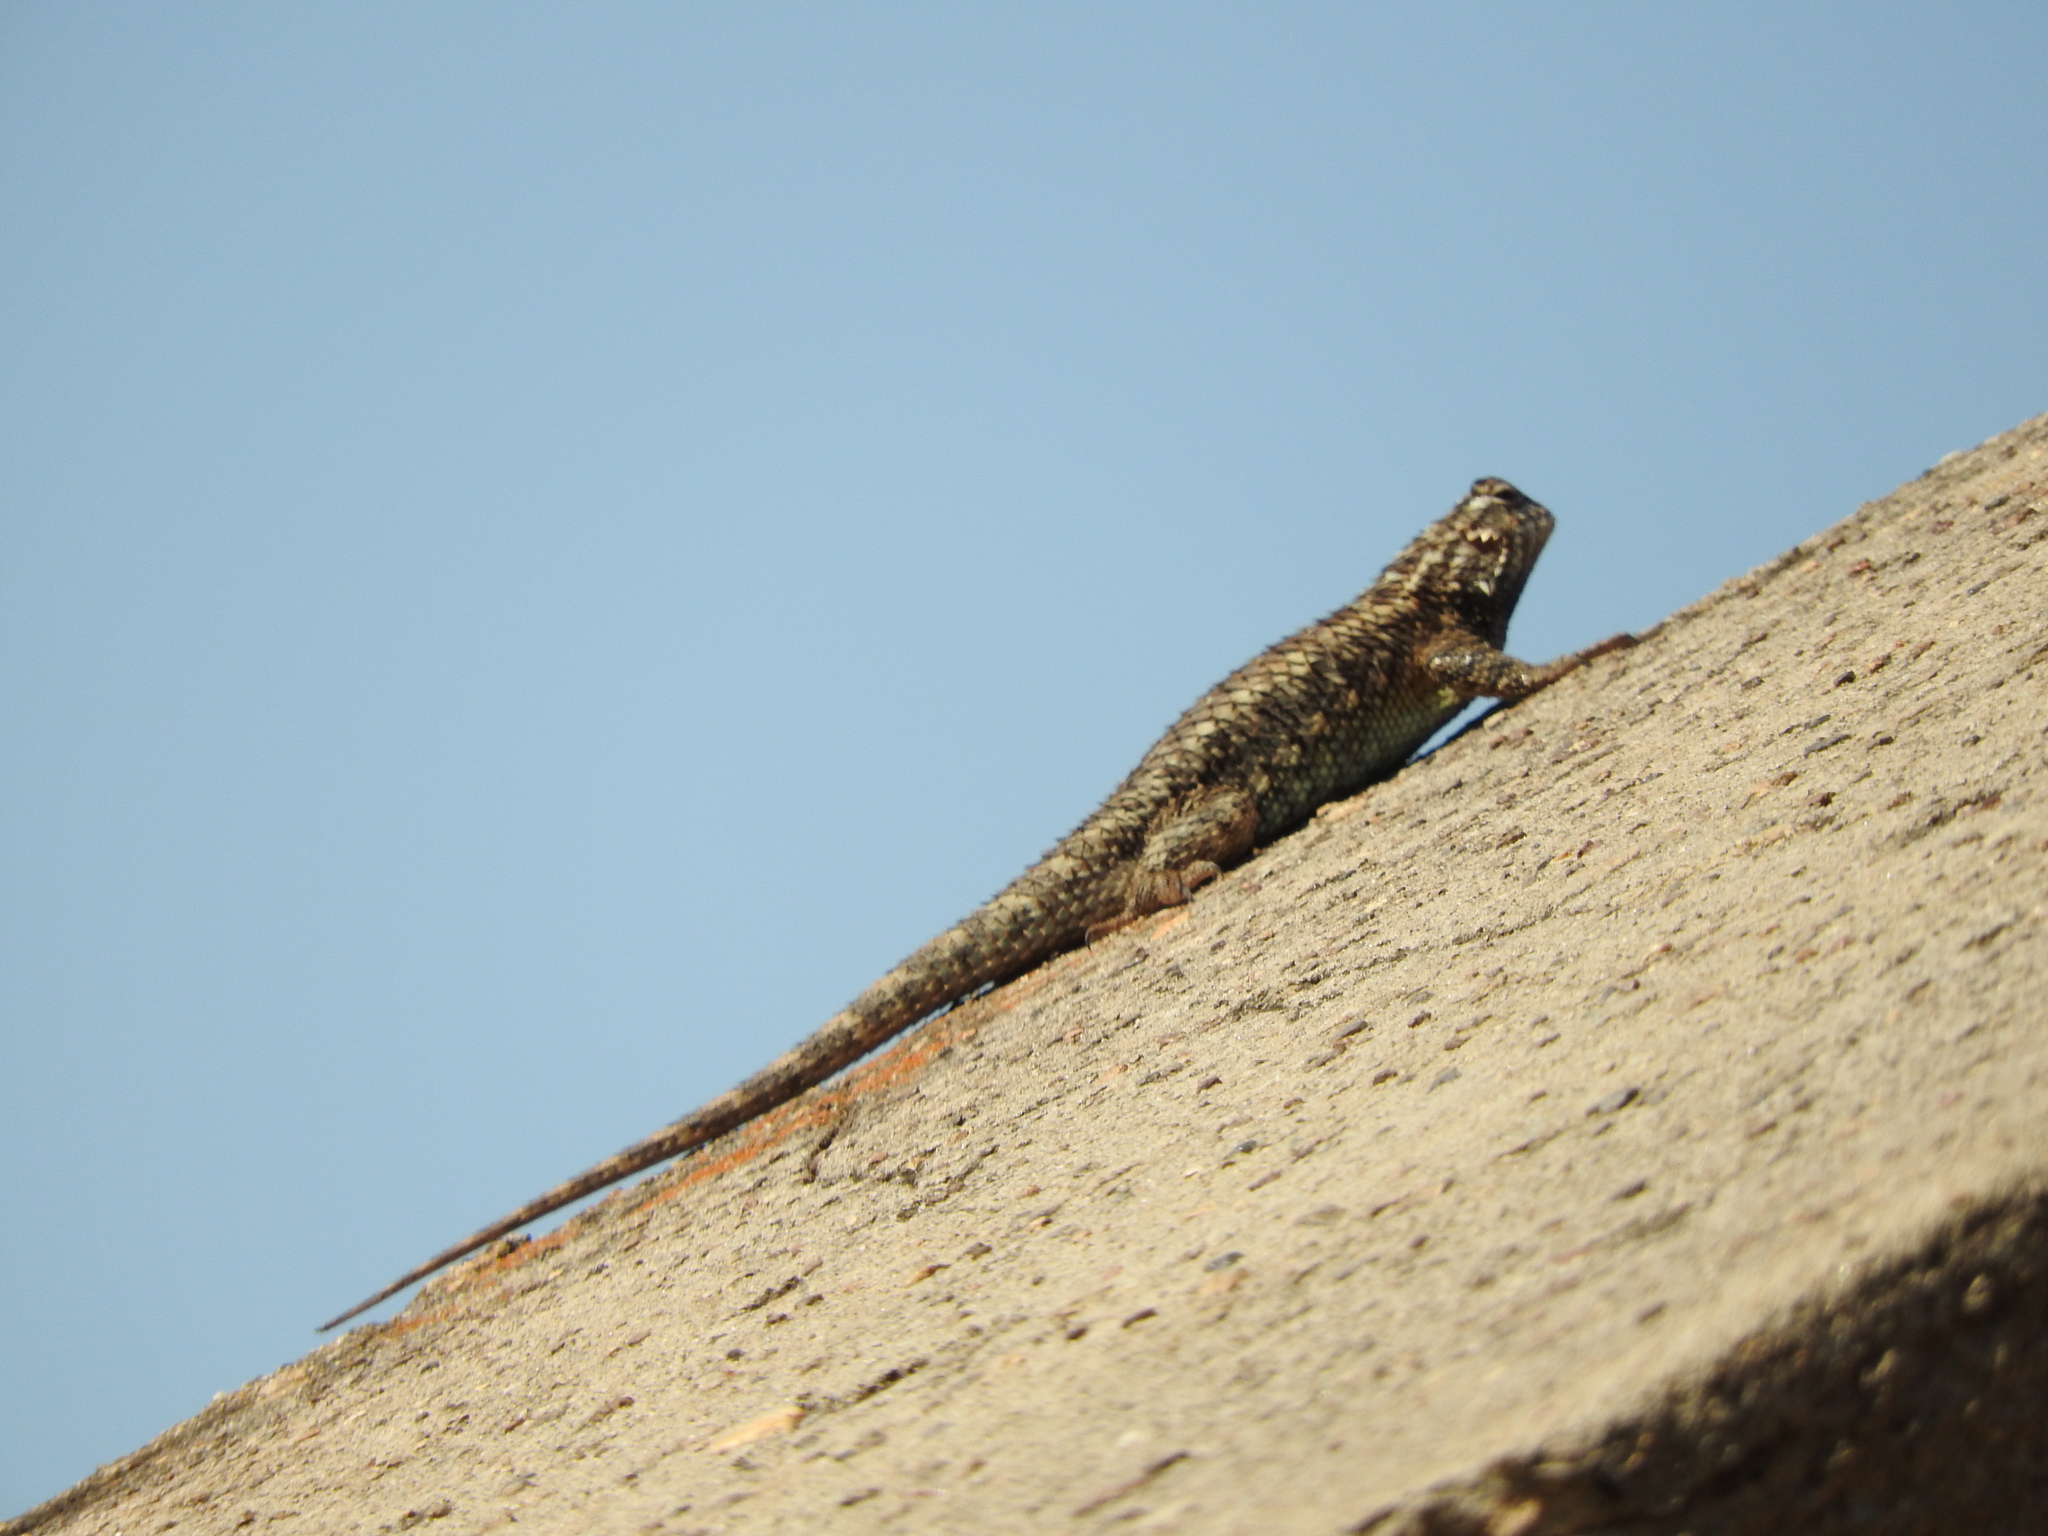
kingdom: Animalia
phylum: Chordata
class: Squamata
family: Phrynosomatidae
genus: Sceloporus
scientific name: Sceloporus spinosus
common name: Blue-spotted spiny lizard [caeruleopunctatus]
